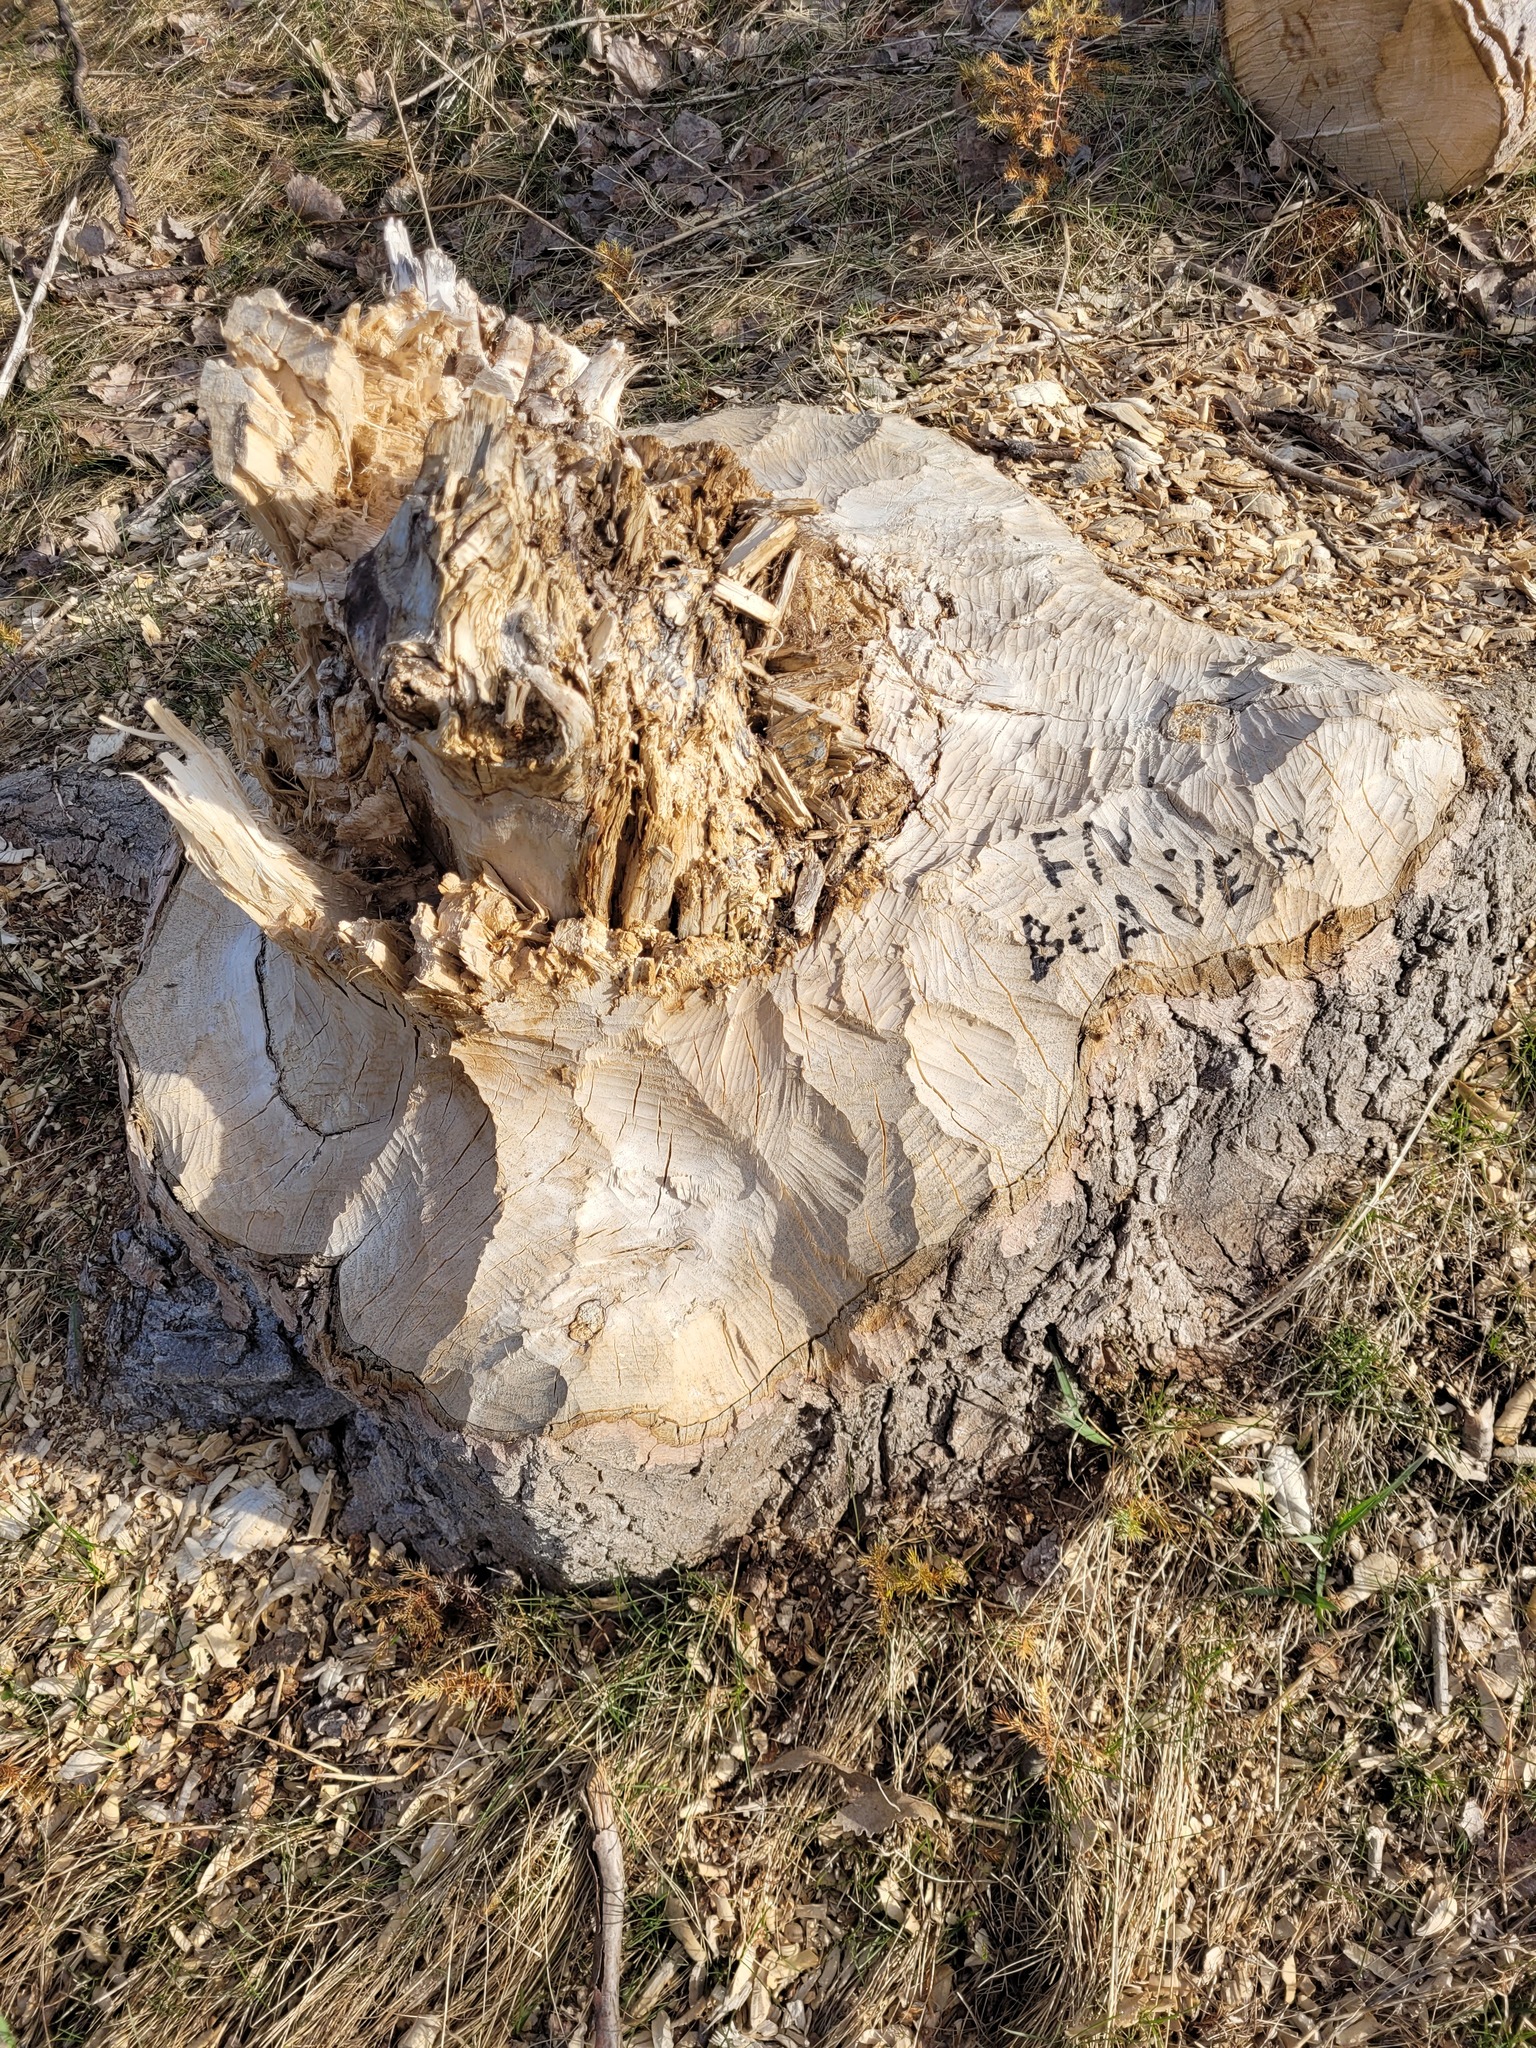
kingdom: Animalia
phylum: Chordata
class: Mammalia
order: Rodentia
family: Castoridae
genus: Castor
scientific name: Castor canadensis
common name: American beaver
